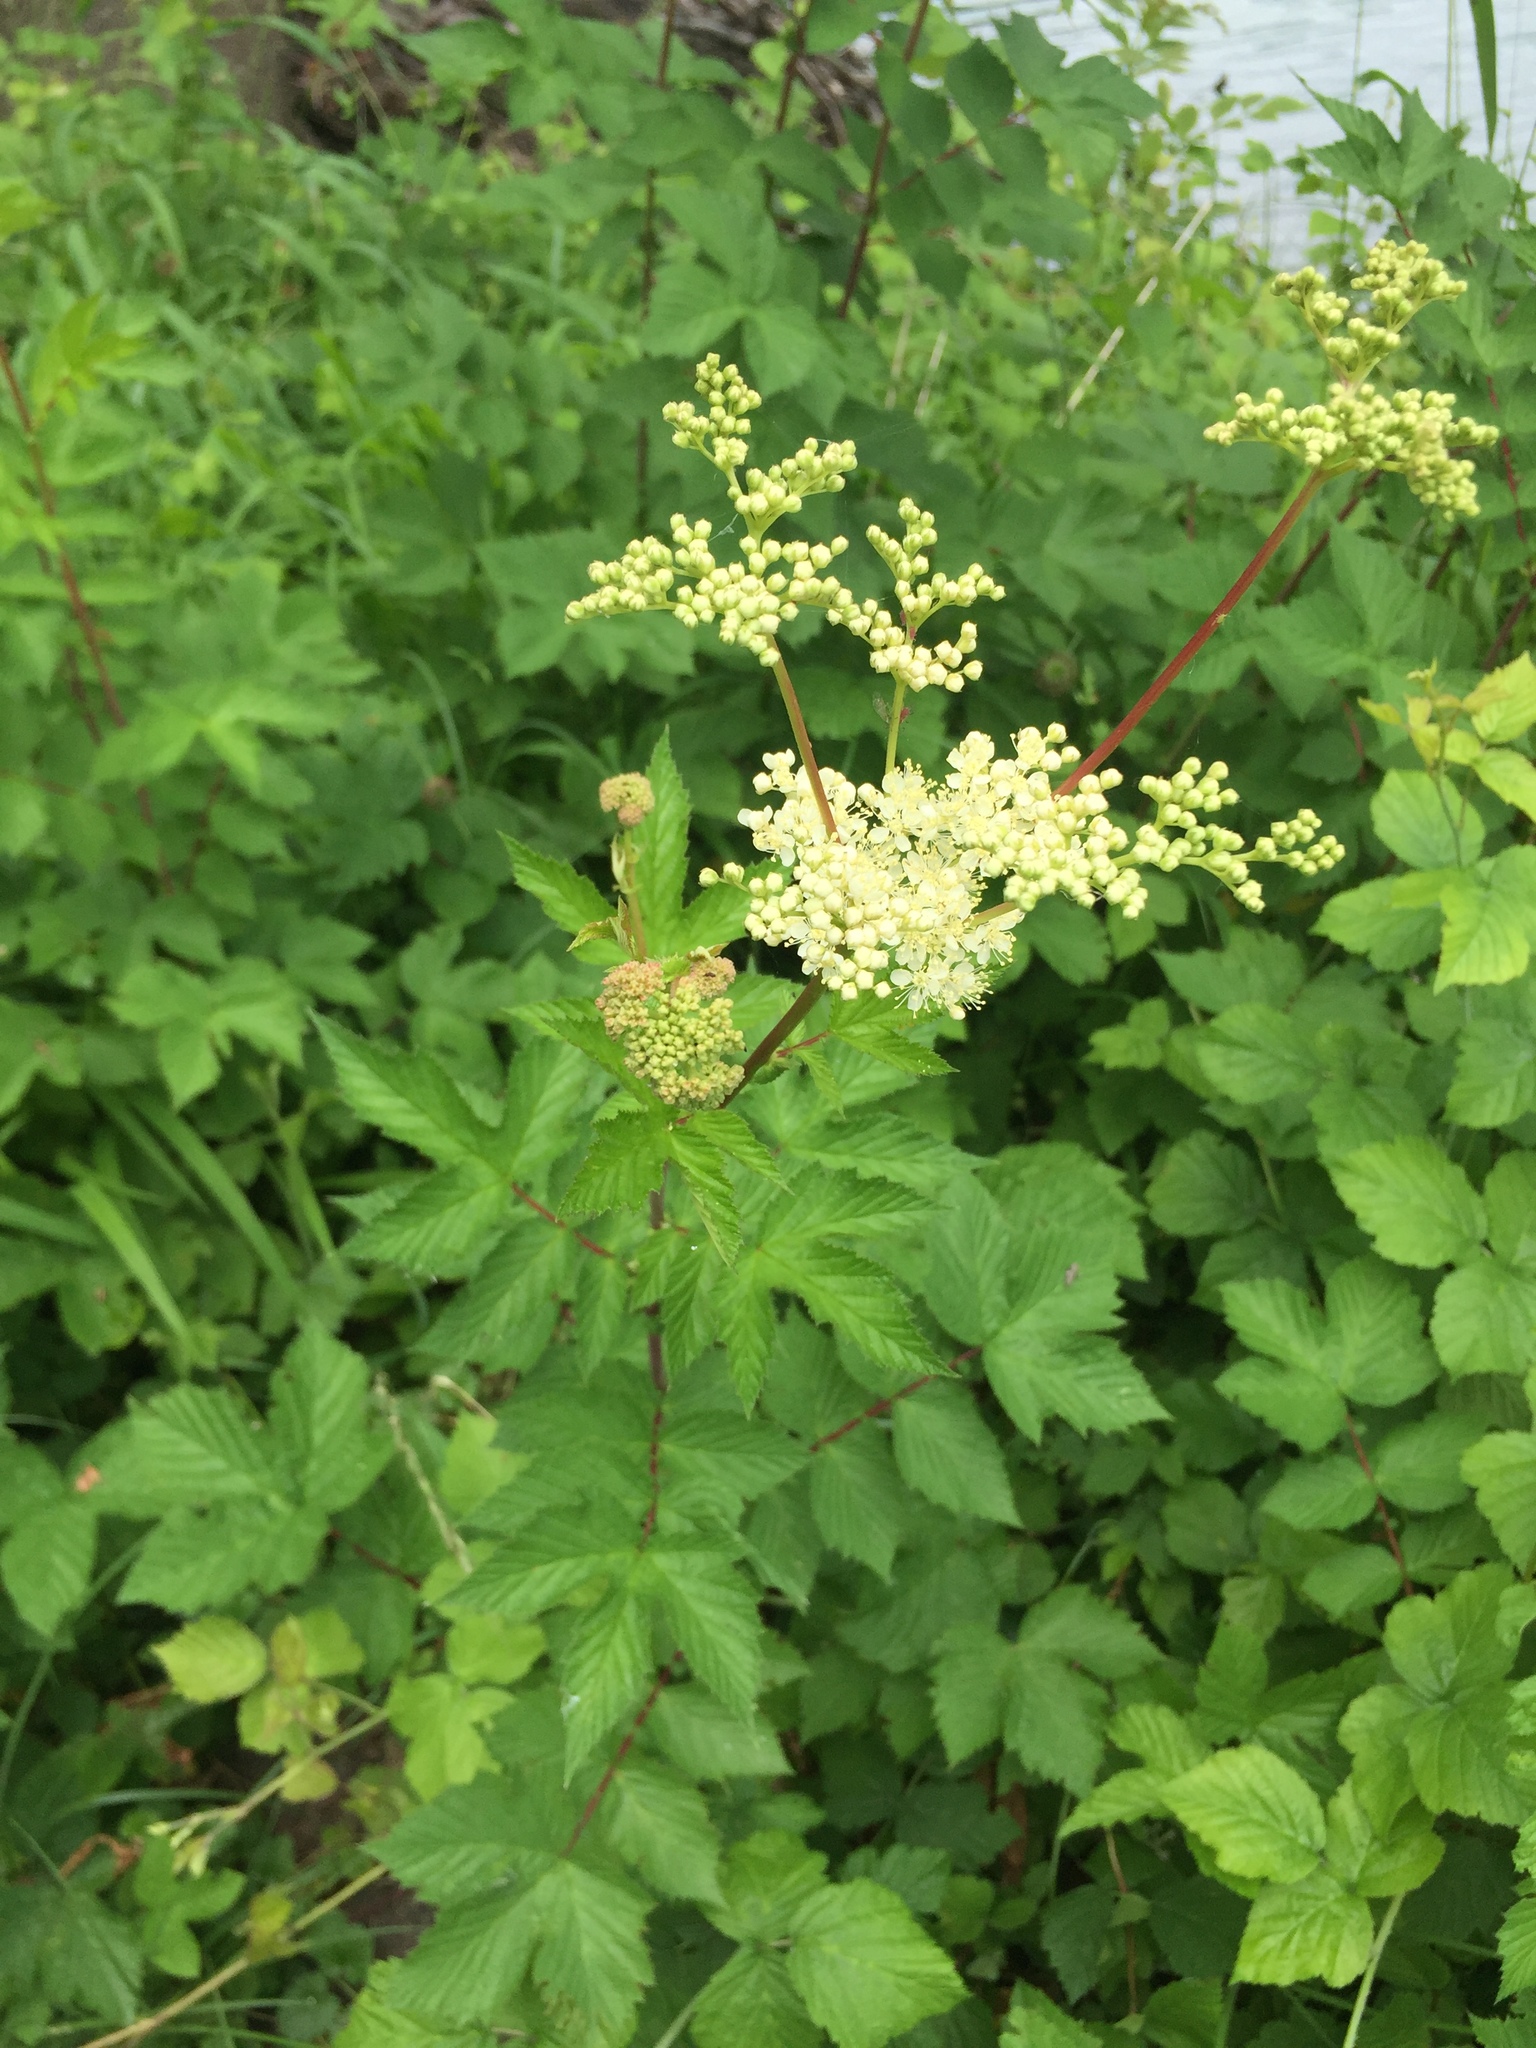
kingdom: Plantae
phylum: Tracheophyta
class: Magnoliopsida
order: Rosales
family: Rosaceae
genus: Filipendula
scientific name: Filipendula ulmaria
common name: Meadowsweet
